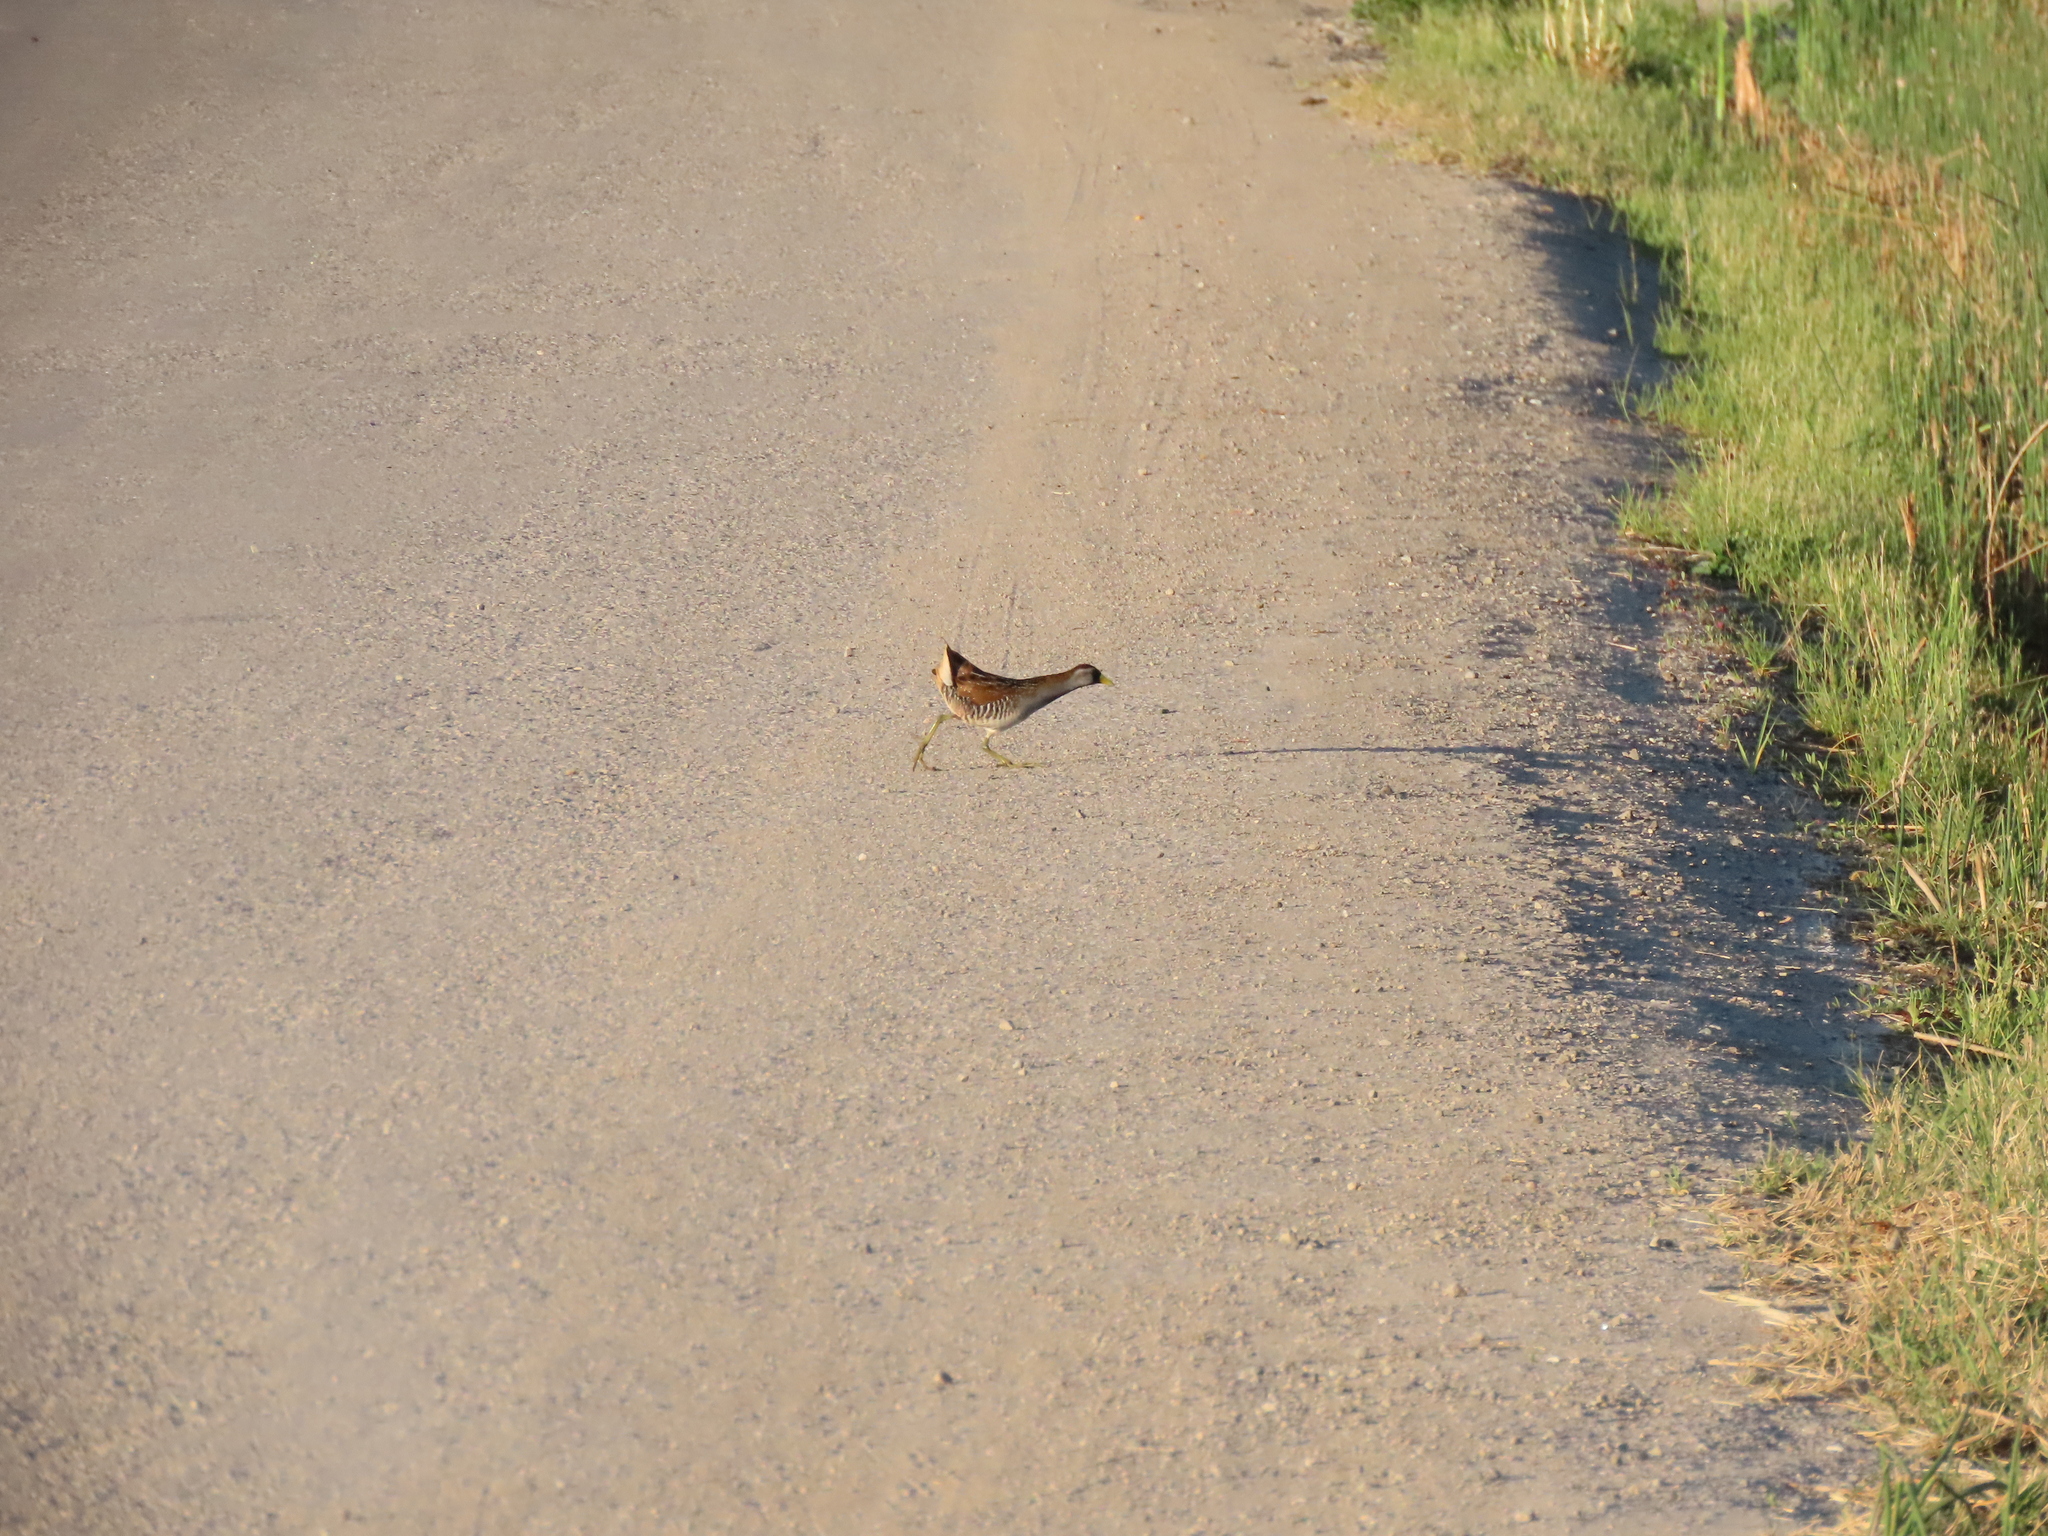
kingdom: Animalia
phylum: Chordata
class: Aves
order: Gruiformes
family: Rallidae
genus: Porzana
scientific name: Porzana carolina
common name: Sora
